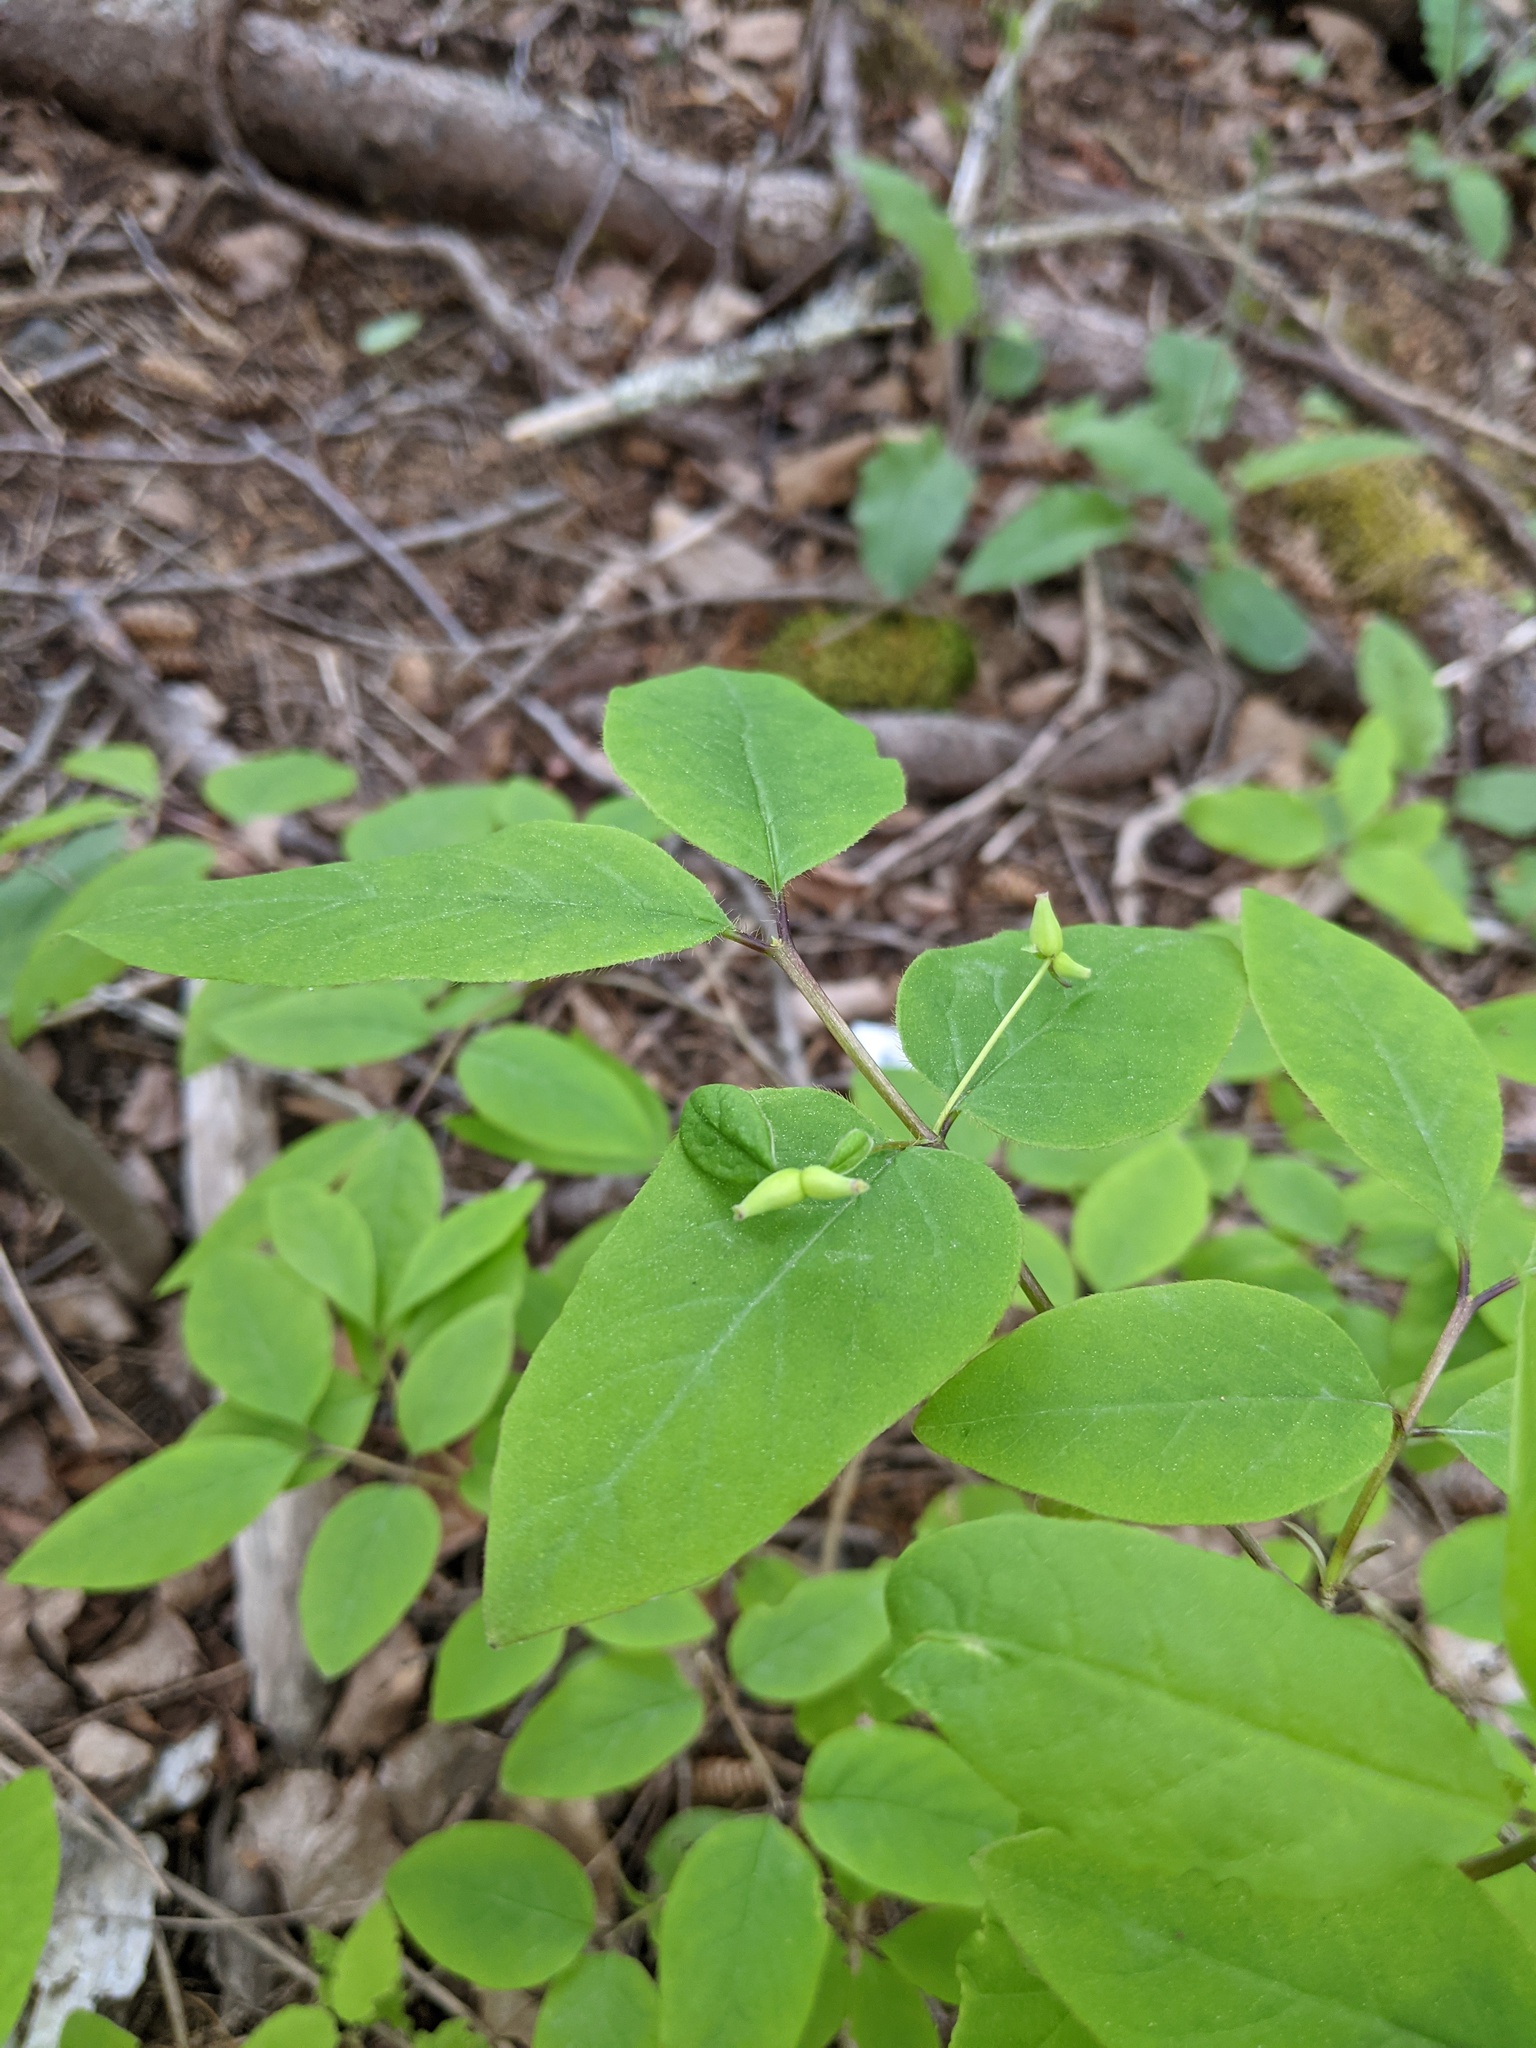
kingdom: Plantae
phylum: Tracheophyta
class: Magnoliopsida
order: Dipsacales
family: Caprifoliaceae
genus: Lonicera
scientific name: Lonicera canadensis
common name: American fly-honeysuckle
